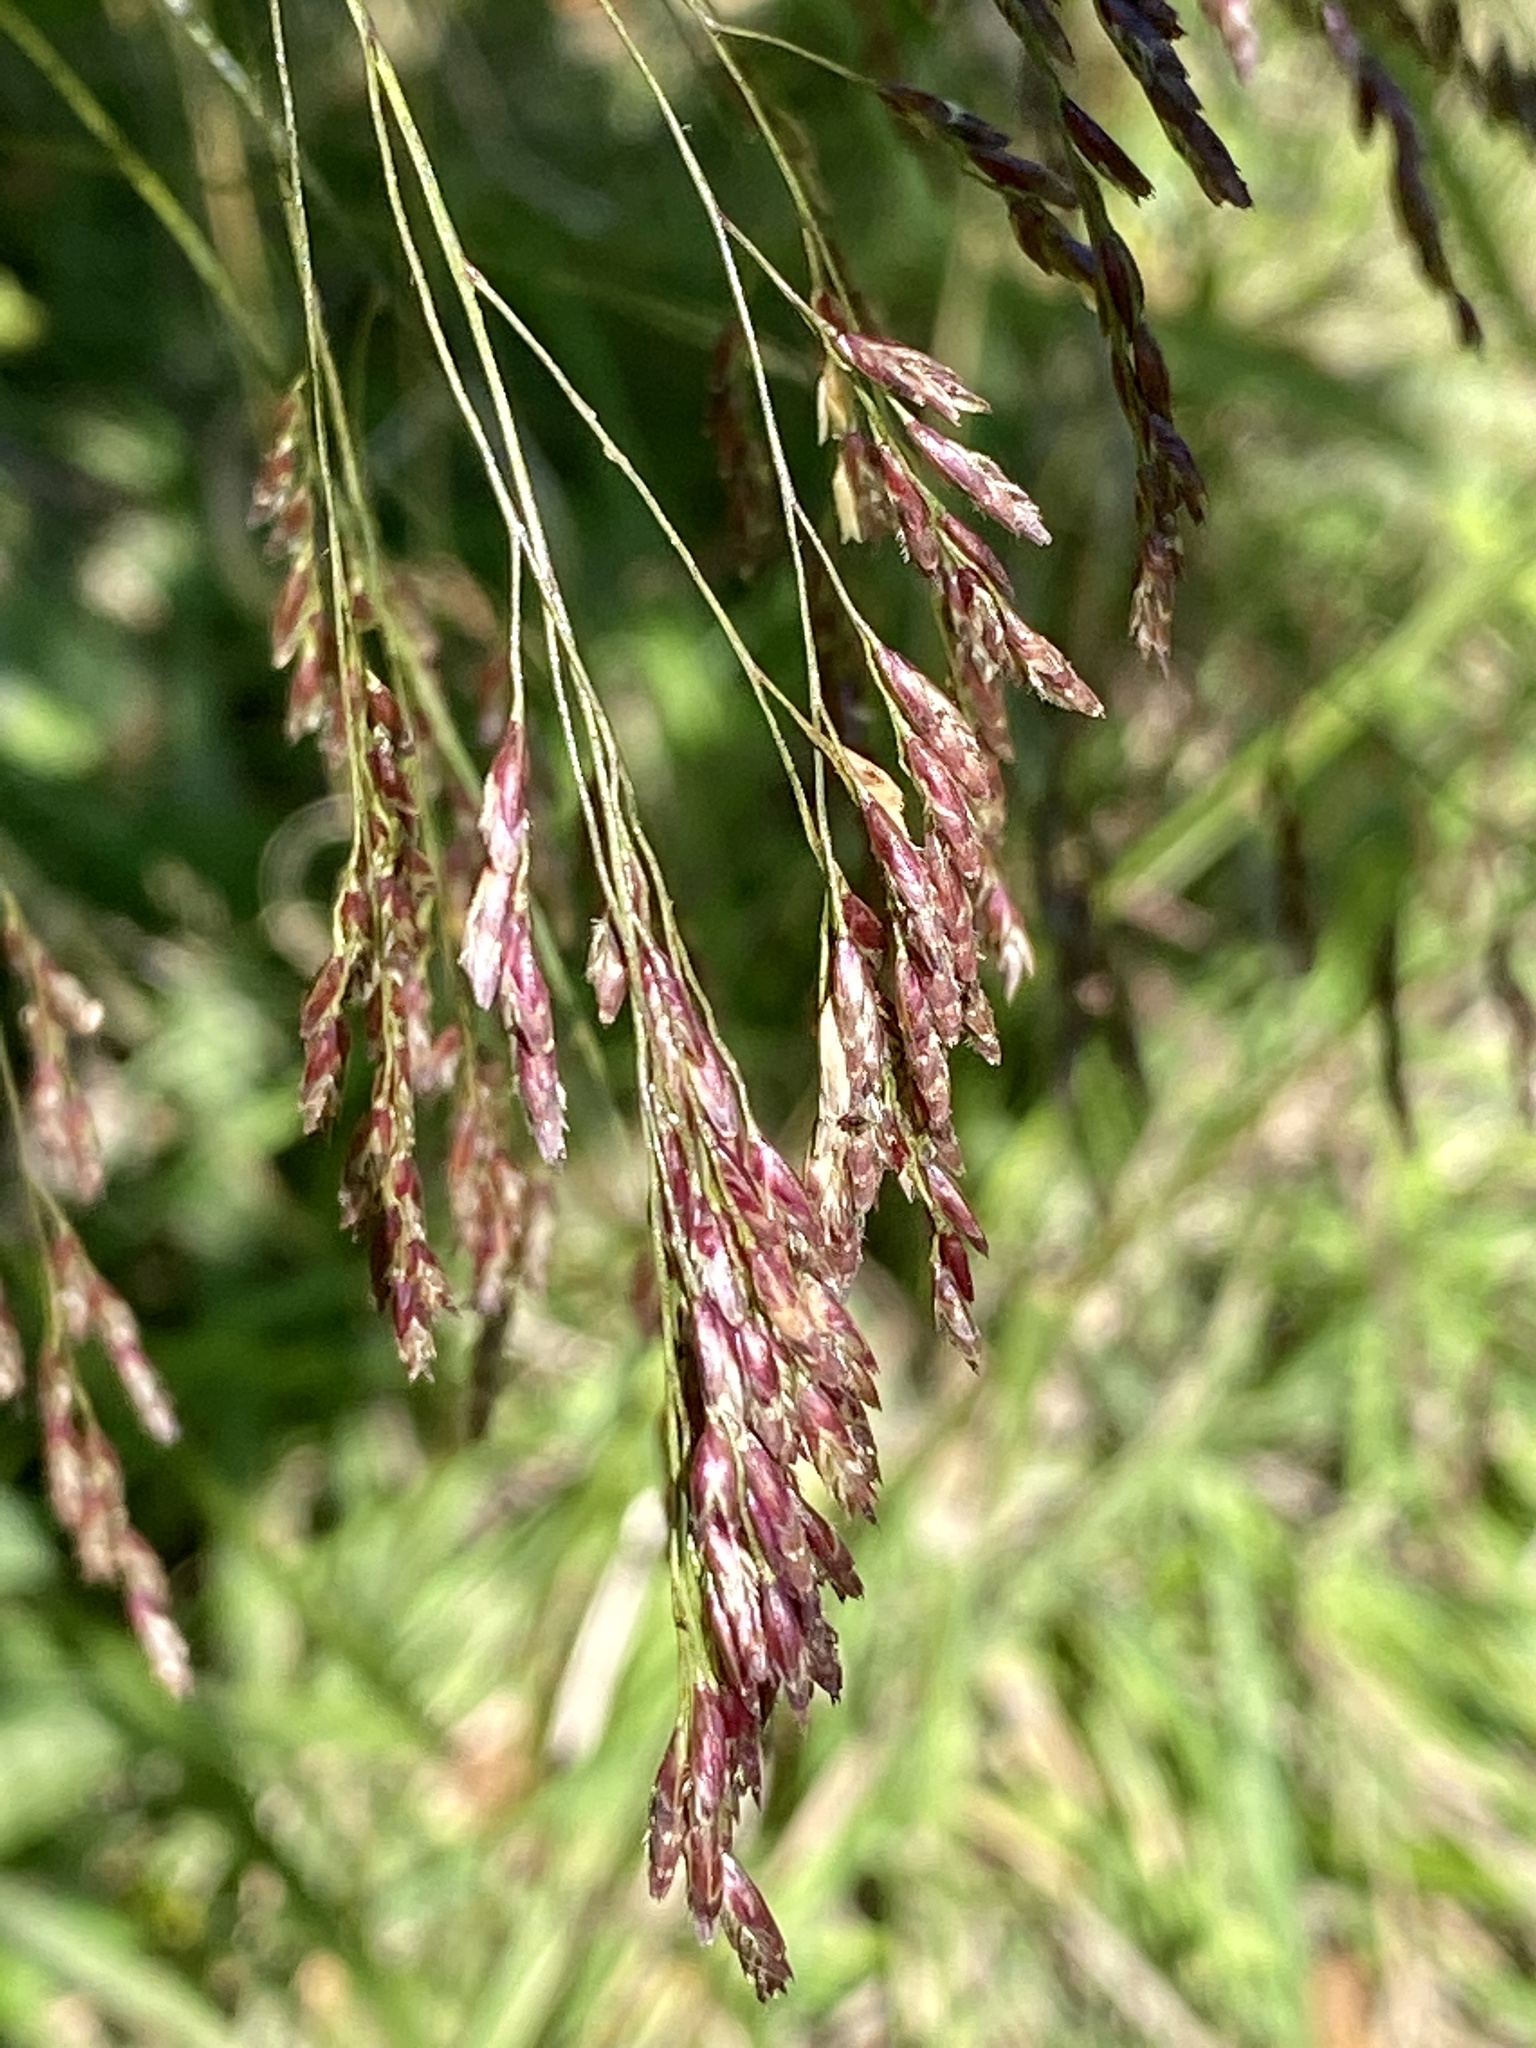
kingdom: Plantae
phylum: Tracheophyta
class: Liliopsida
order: Poales
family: Poaceae
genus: Tridens
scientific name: Tridens flavus
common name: Purpletop
